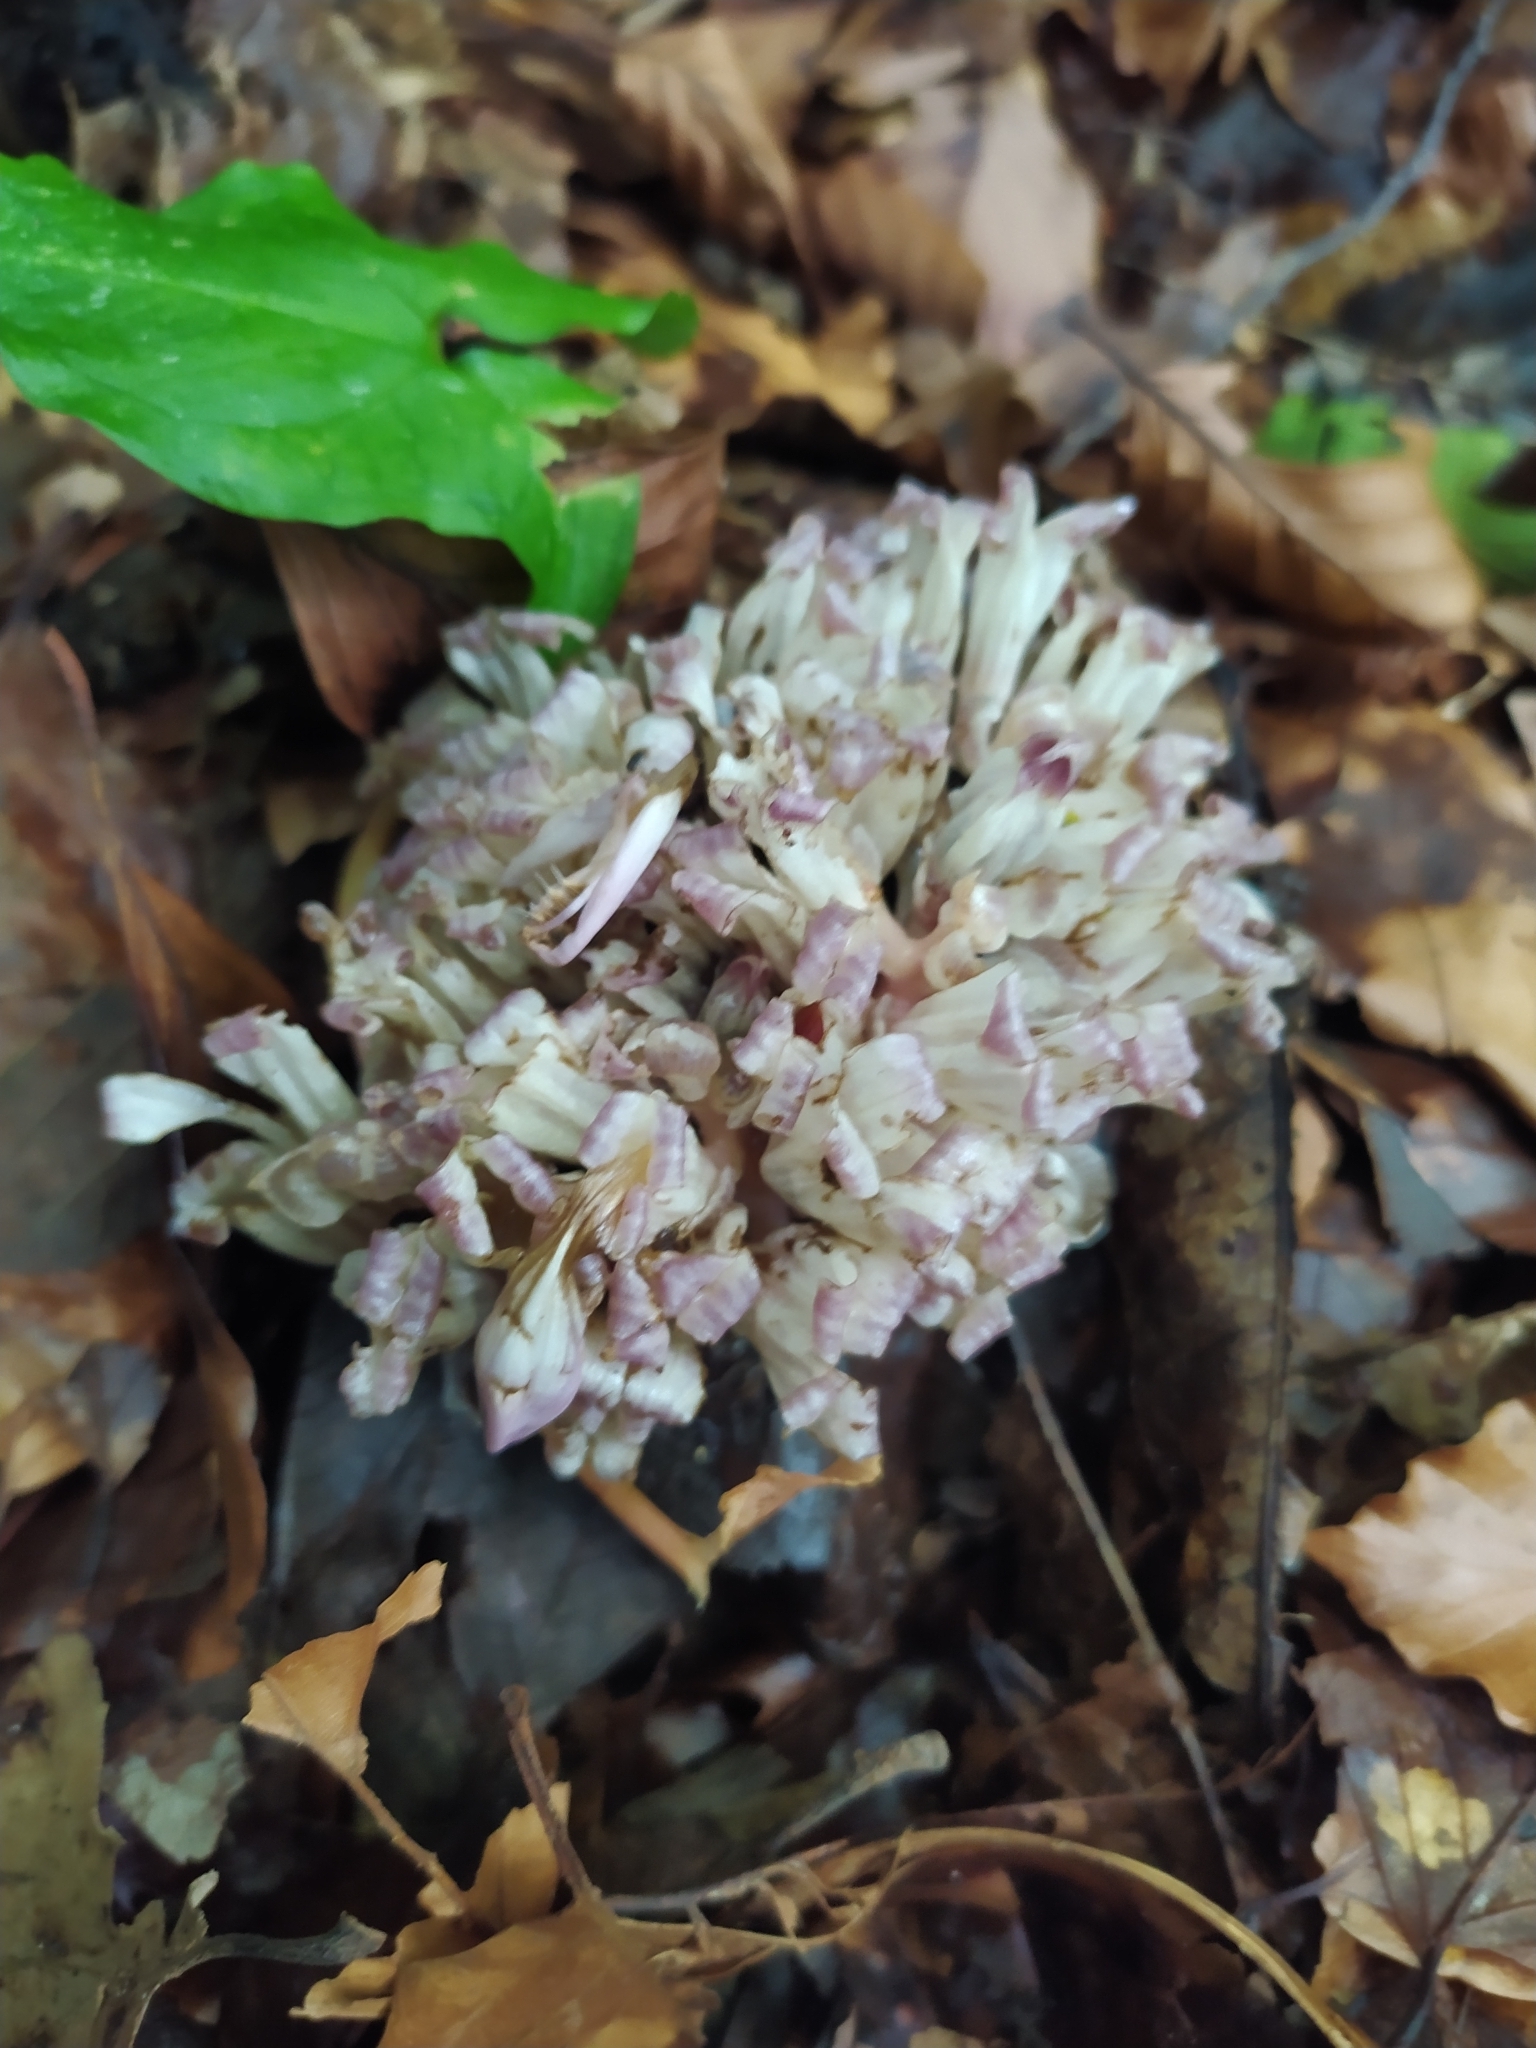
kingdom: Plantae
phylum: Tracheophyta
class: Magnoliopsida
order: Lamiales
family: Orobanchaceae
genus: Lathraea
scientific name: Lathraea clandestina
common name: Purple toothwort
